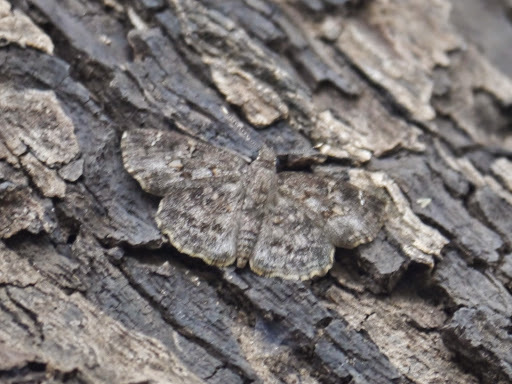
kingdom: Animalia
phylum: Arthropoda
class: Insecta
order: Lepidoptera
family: Hesperiidae
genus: Sarangesa
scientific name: Sarangesa seineri
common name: Dark elfin
